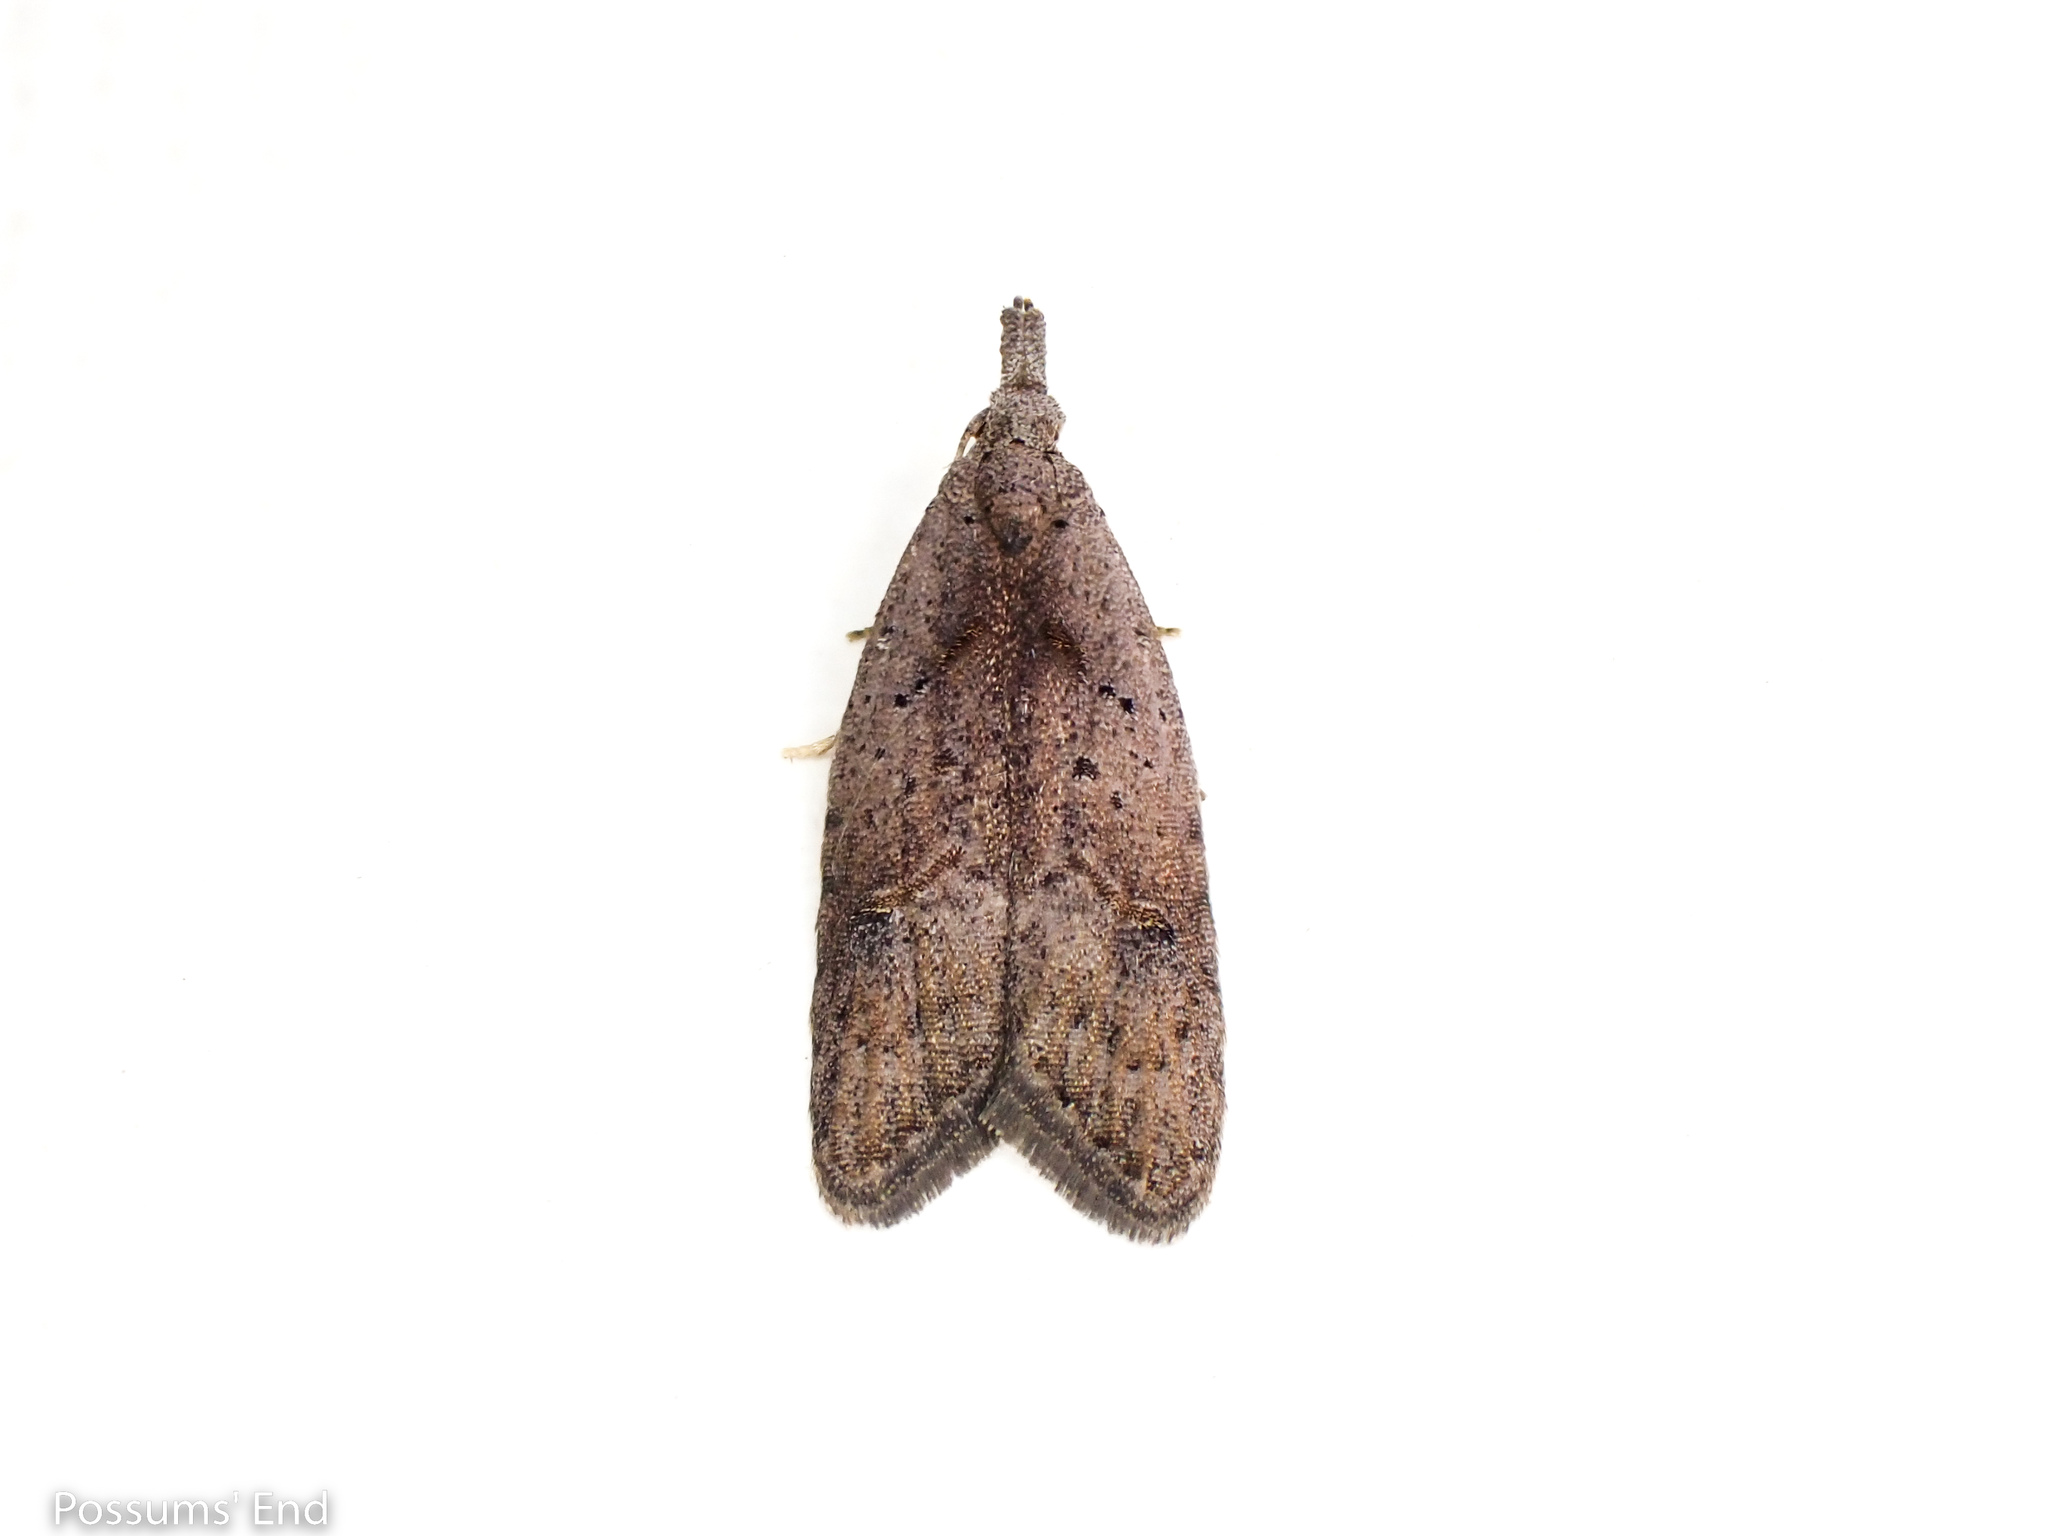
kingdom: Animalia
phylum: Arthropoda
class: Insecta
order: Lepidoptera
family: Carposinidae
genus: Carposina
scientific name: Carposina rubophaga
